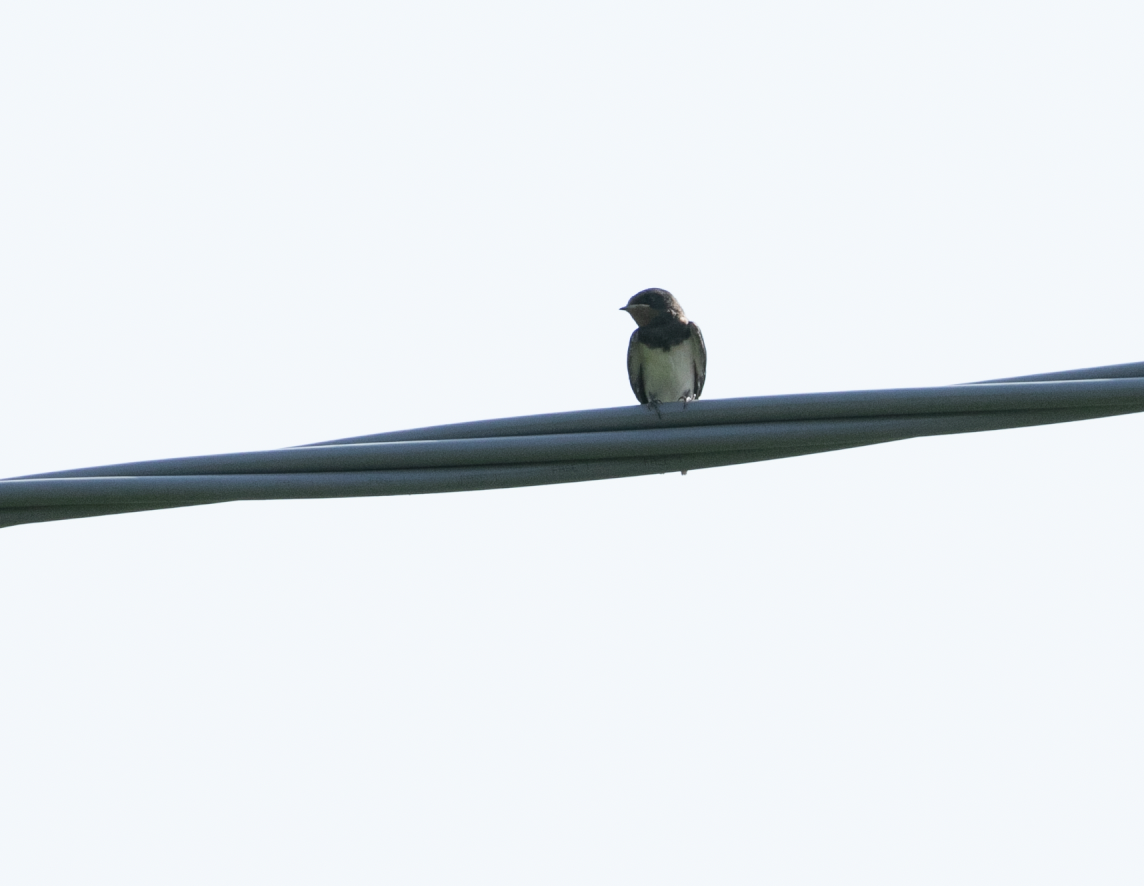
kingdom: Animalia
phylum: Chordata
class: Aves
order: Passeriformes
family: Hirundinidae
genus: Hirundo
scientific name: Hirundo rustica
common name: Barn swallow
